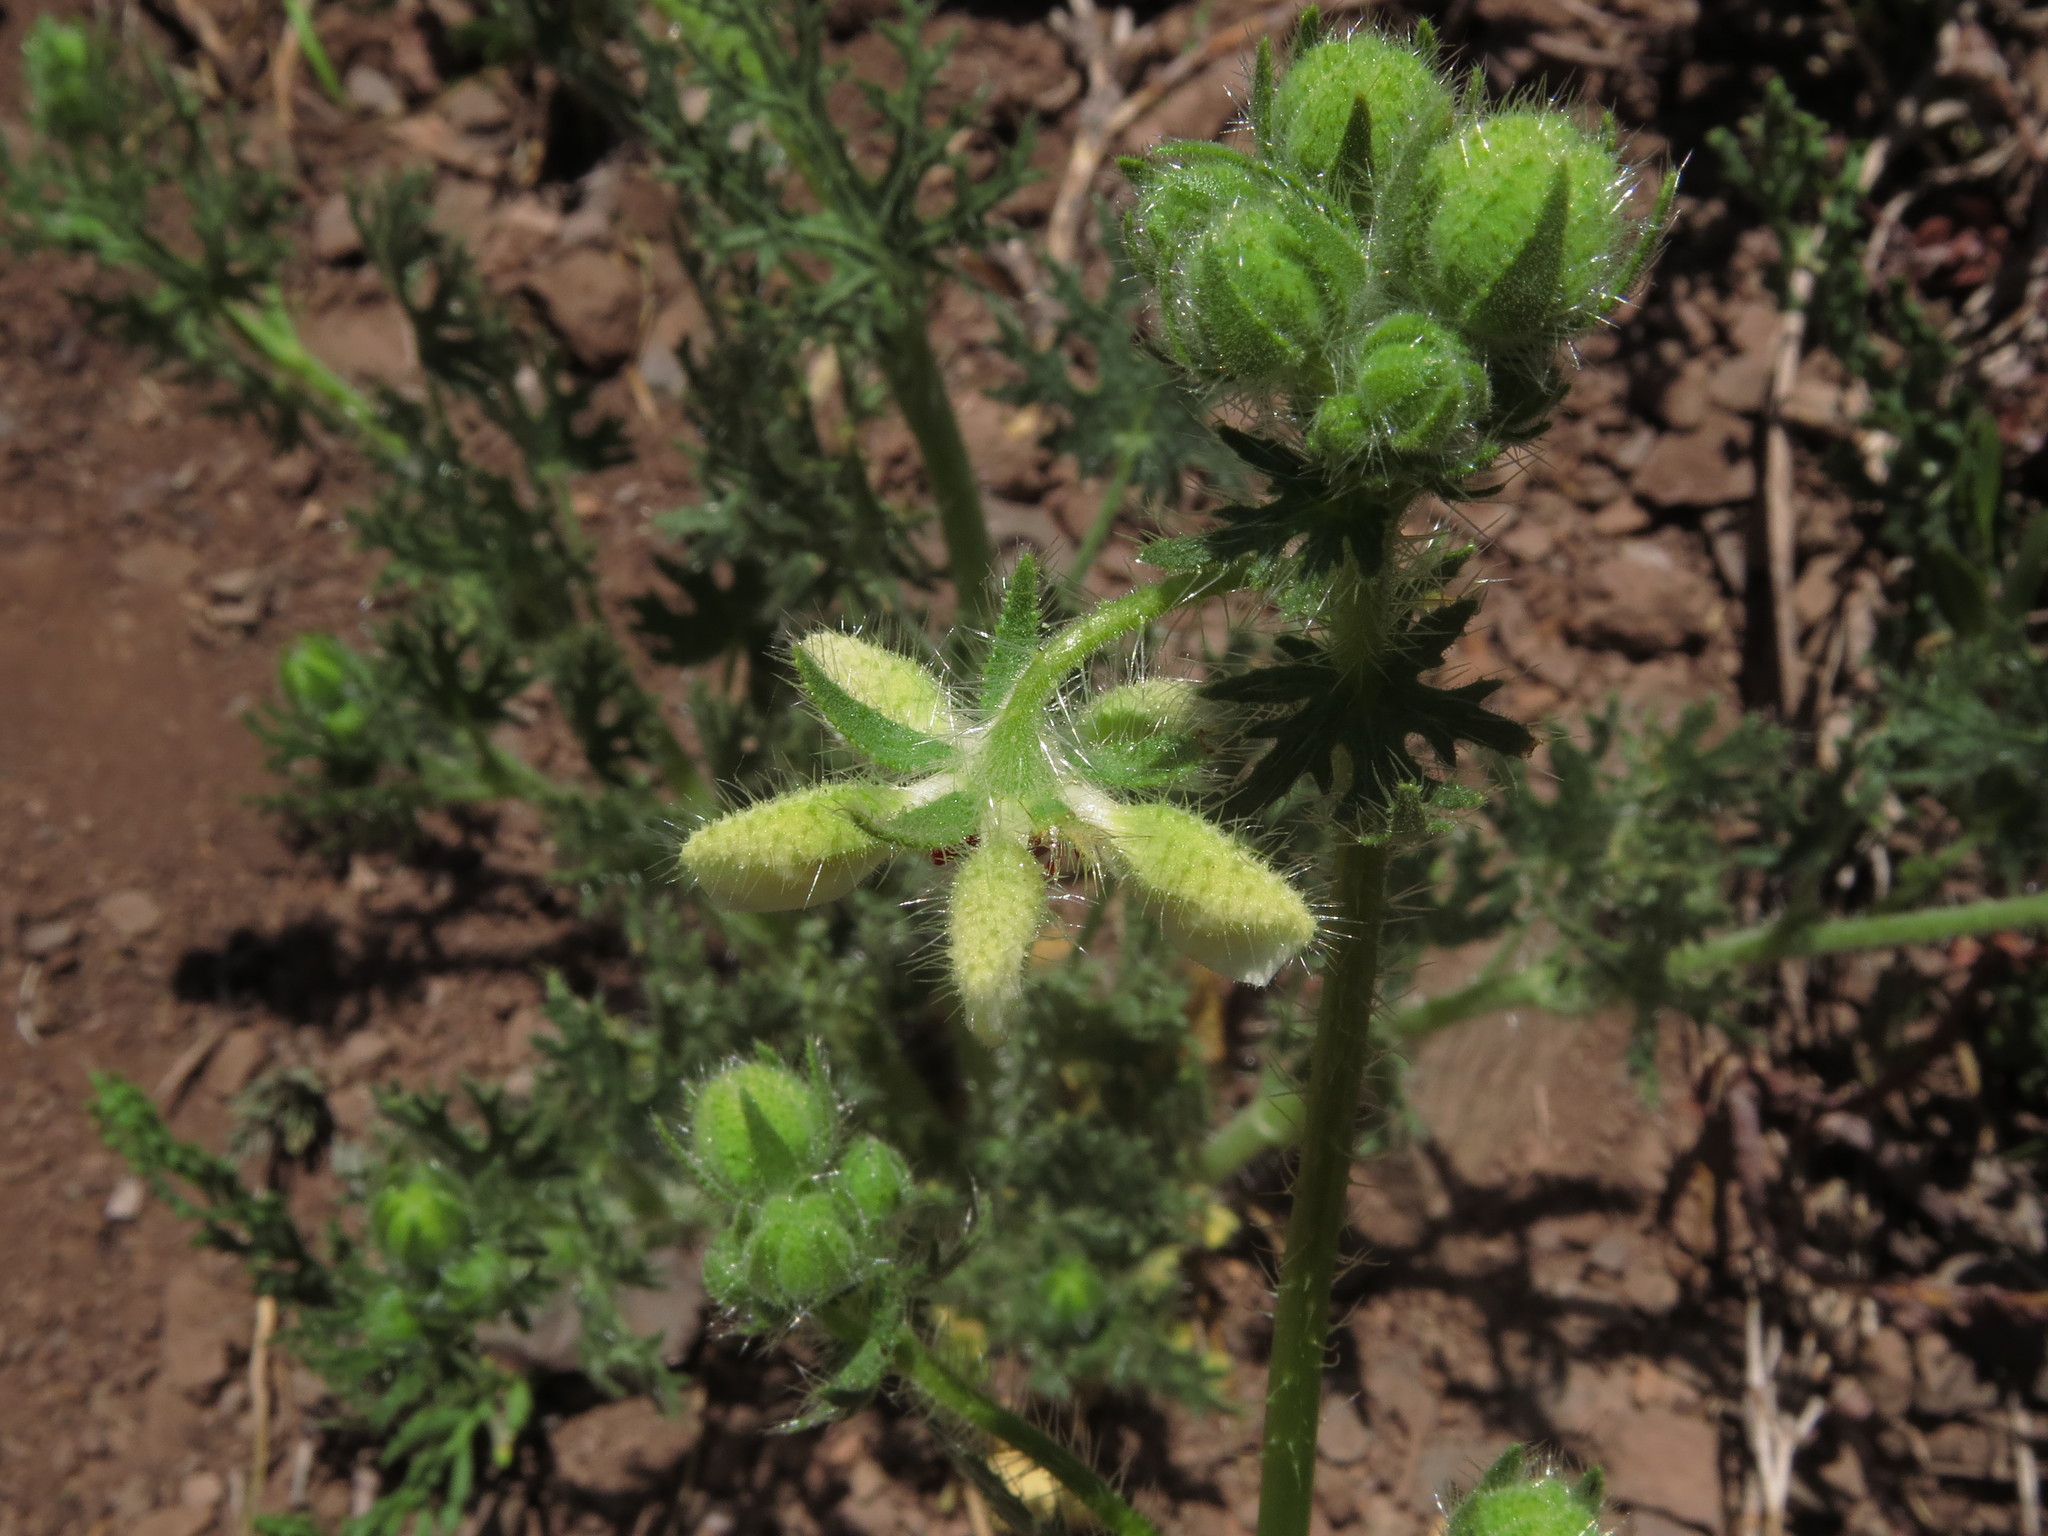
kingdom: Plantae
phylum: Tracheophyta
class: Magnoliopsida
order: Cornales
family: Loasaceae
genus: Loasa
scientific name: Loasa prostrata
